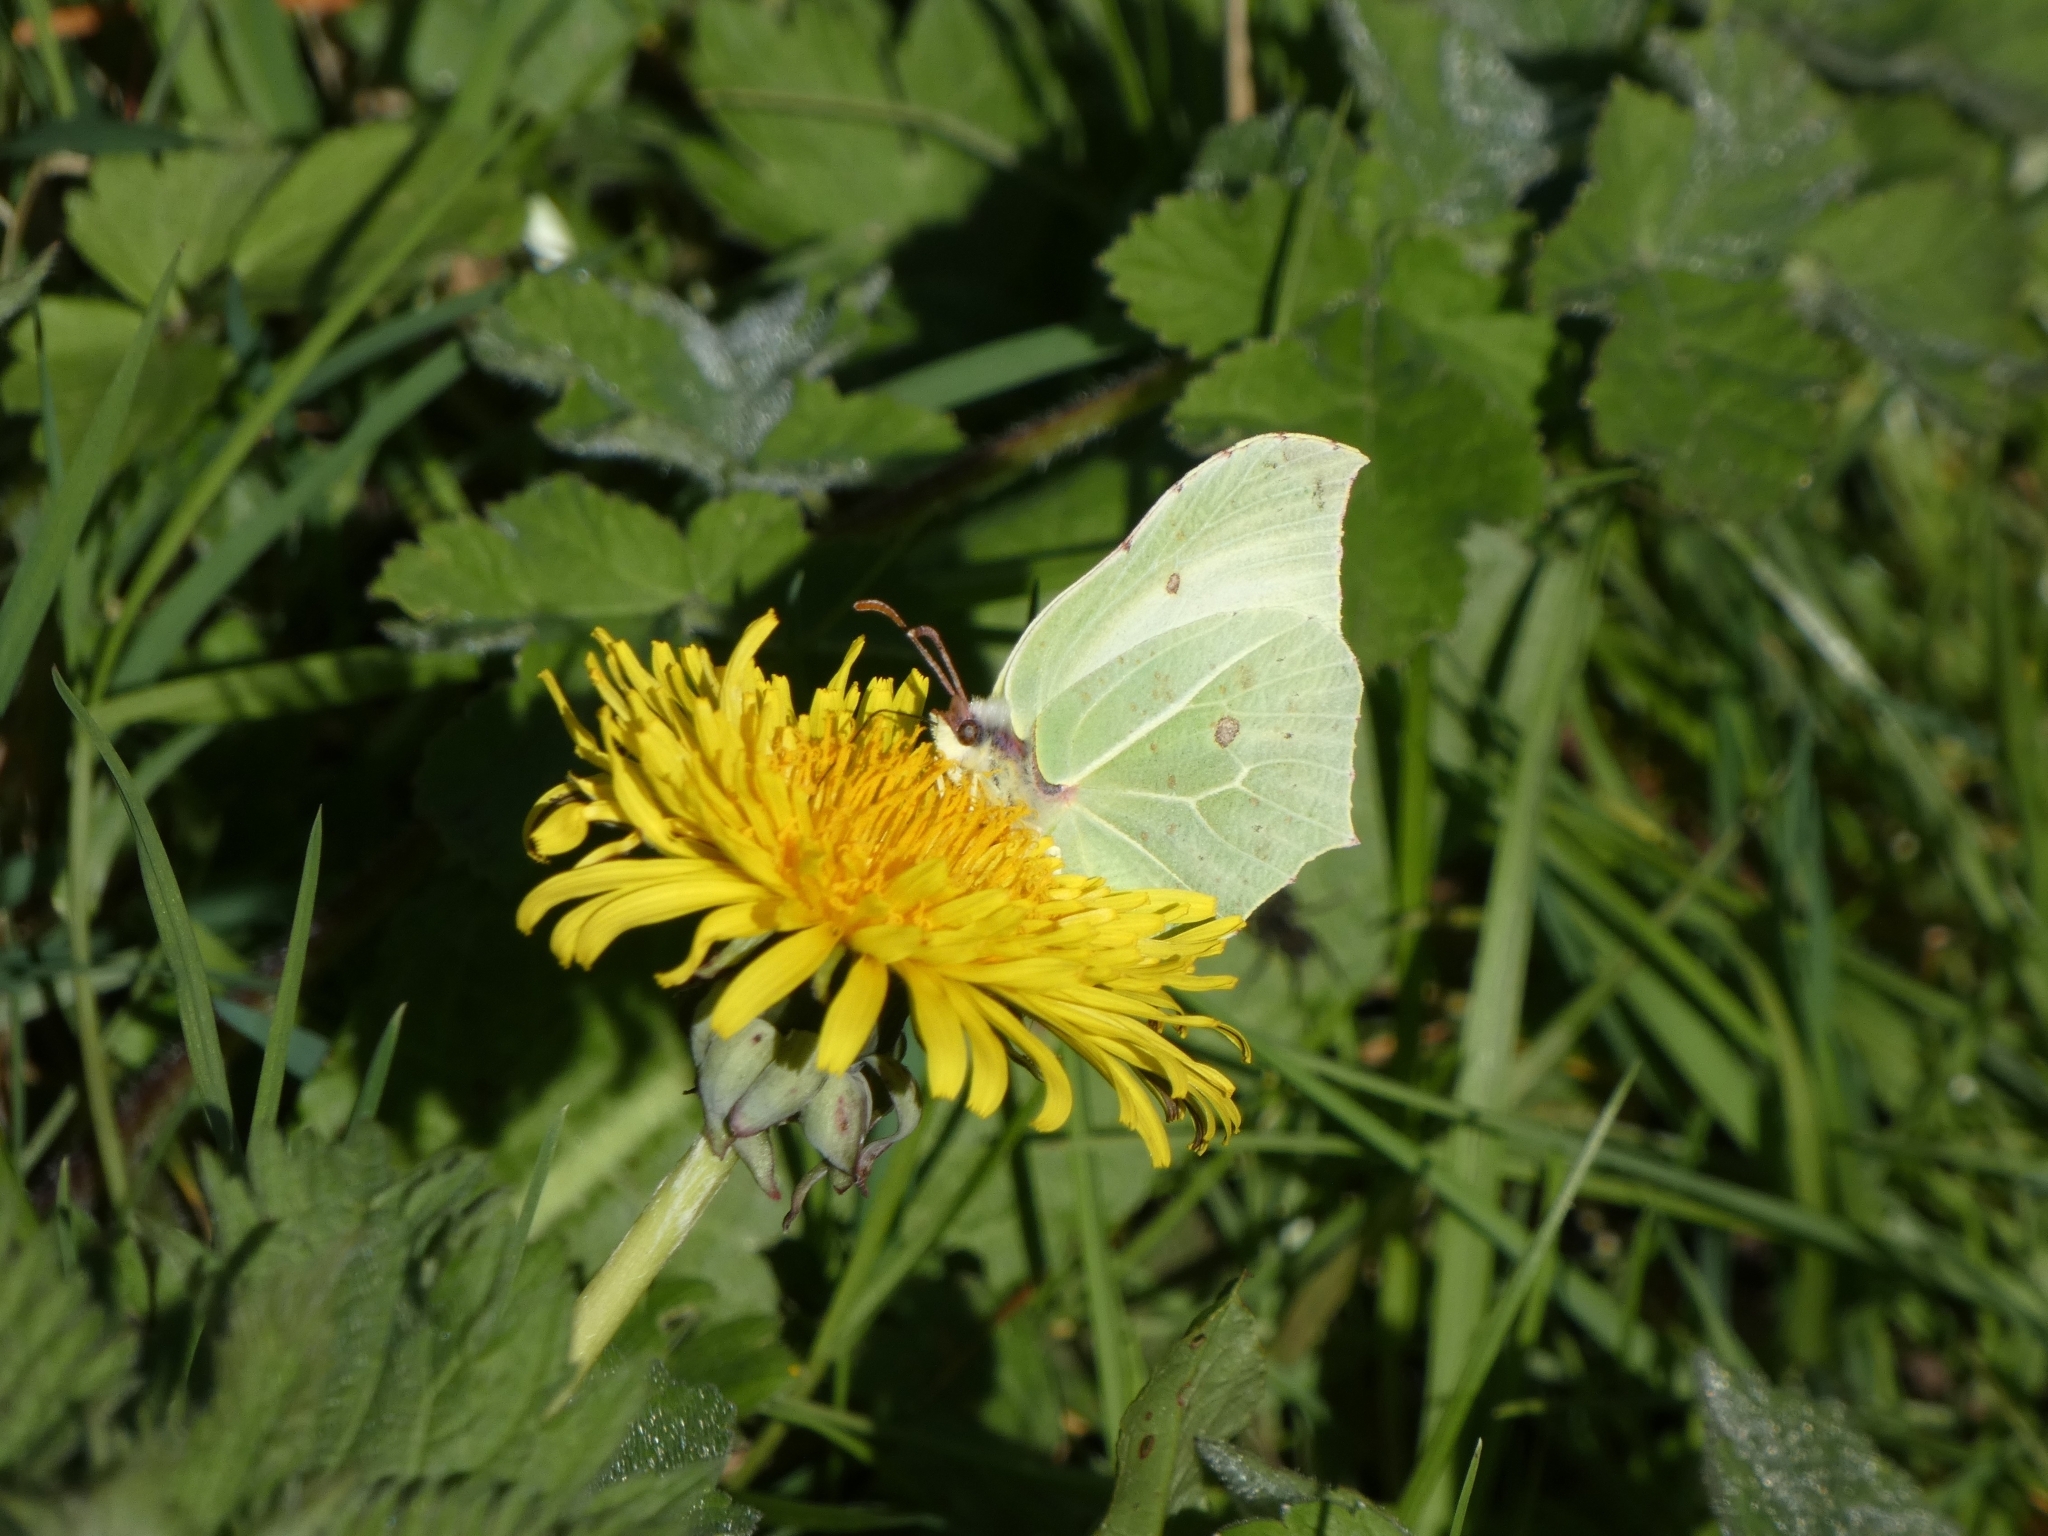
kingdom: Animalia
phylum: Arthropoda
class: Insecta
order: Lepidoptera
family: Pieridae
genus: Gonepteryx
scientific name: Gonepteryx rhamni
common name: Brimstone
